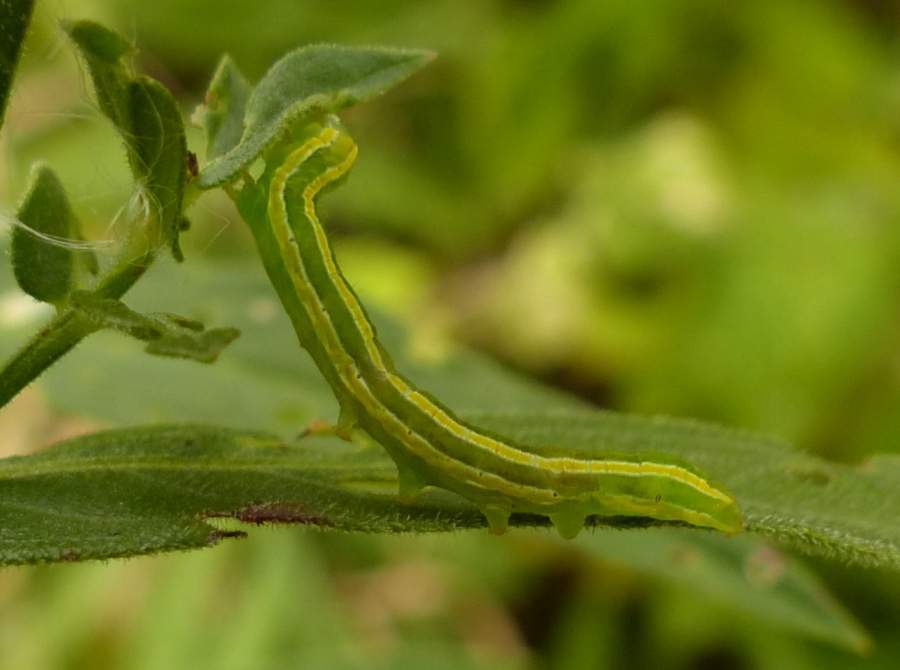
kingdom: Animalia
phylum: Arthropoda
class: Insecta
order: Lepidoptera
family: Noctuidae
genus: Melanchra
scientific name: Melanchra assimilis
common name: Black arches
